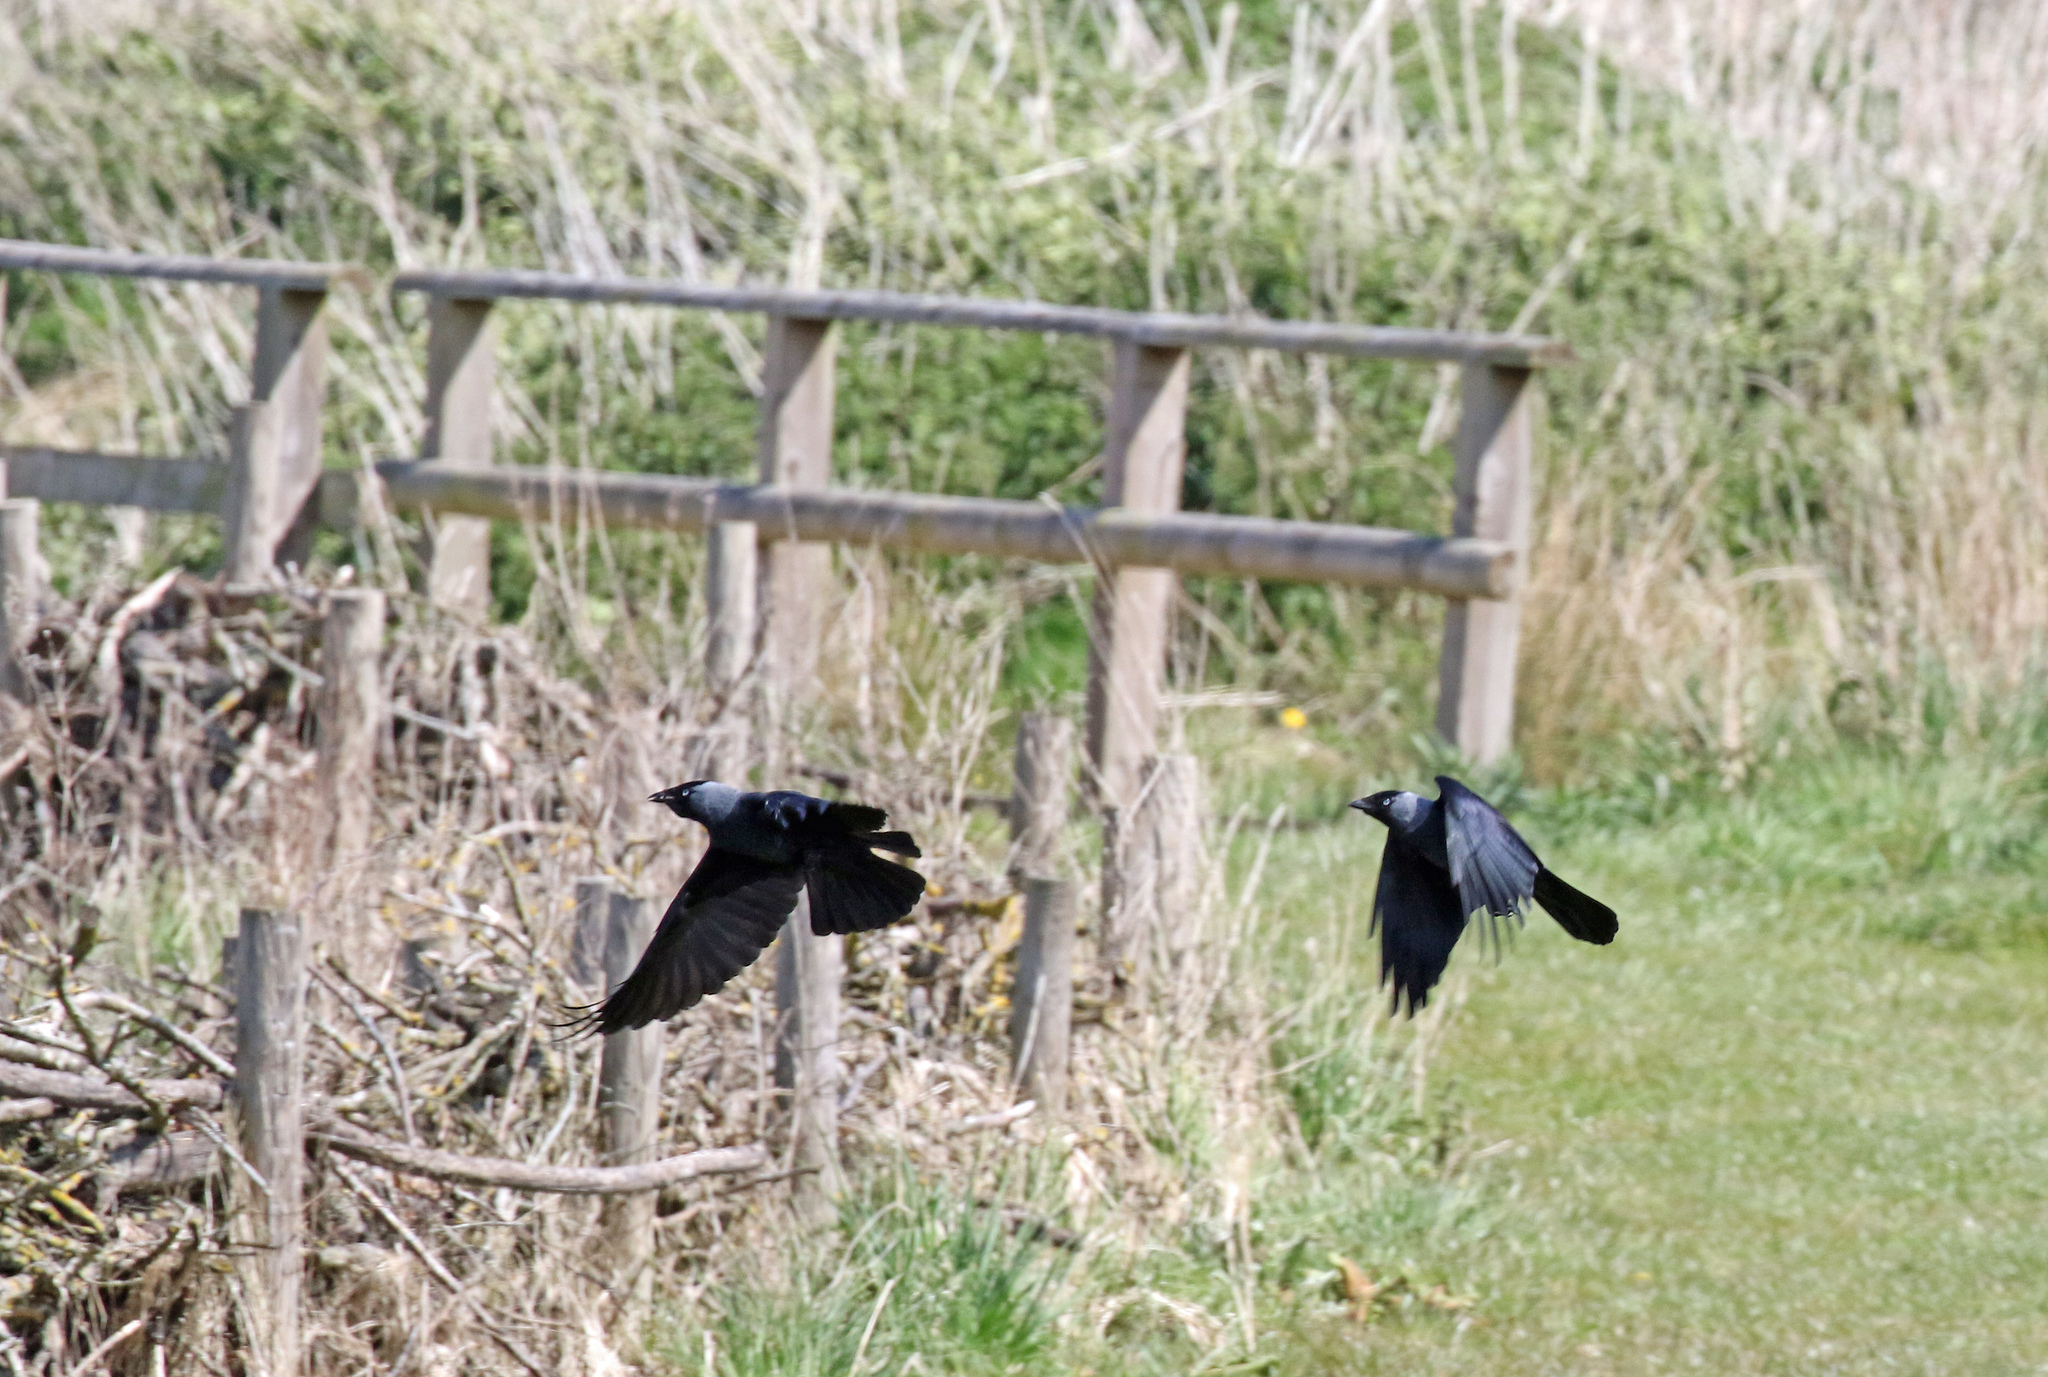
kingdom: Animalia
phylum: Chordata
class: Aves
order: Passeriformes
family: Corvidae
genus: Coloeus
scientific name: Coloeus monedula
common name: Western jackdaw
